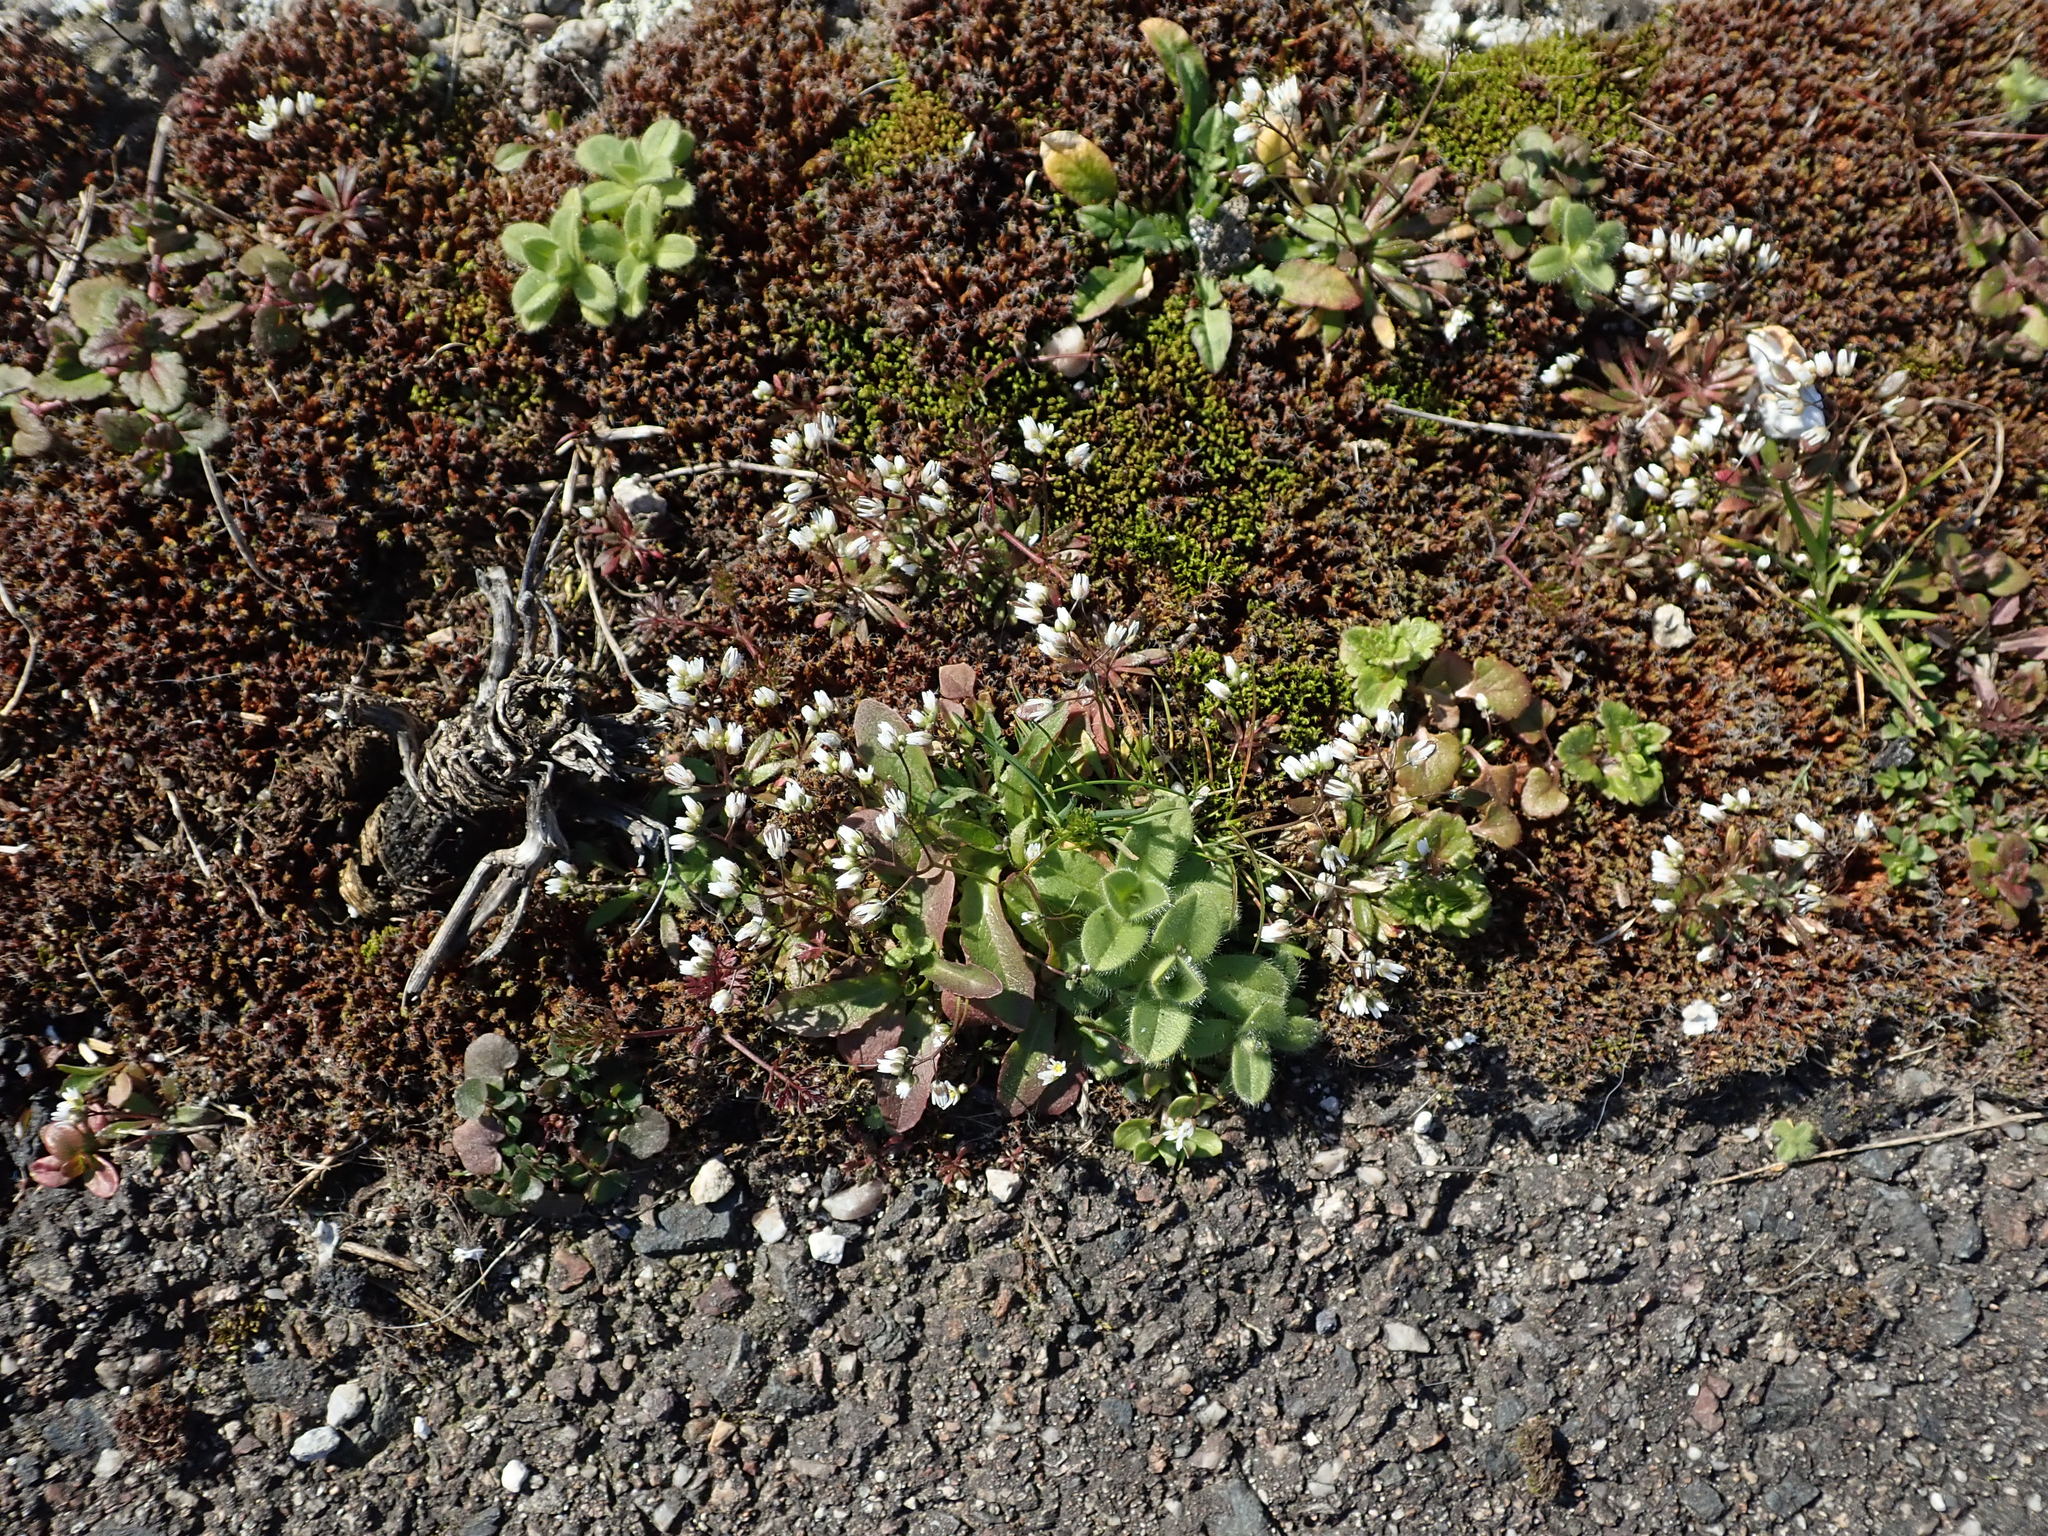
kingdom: Plantae
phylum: Tracheophyta
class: Magnoliopsida
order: Brassicales
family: Brassicaceae
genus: Draba
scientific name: Draba verna
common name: Spring draba
